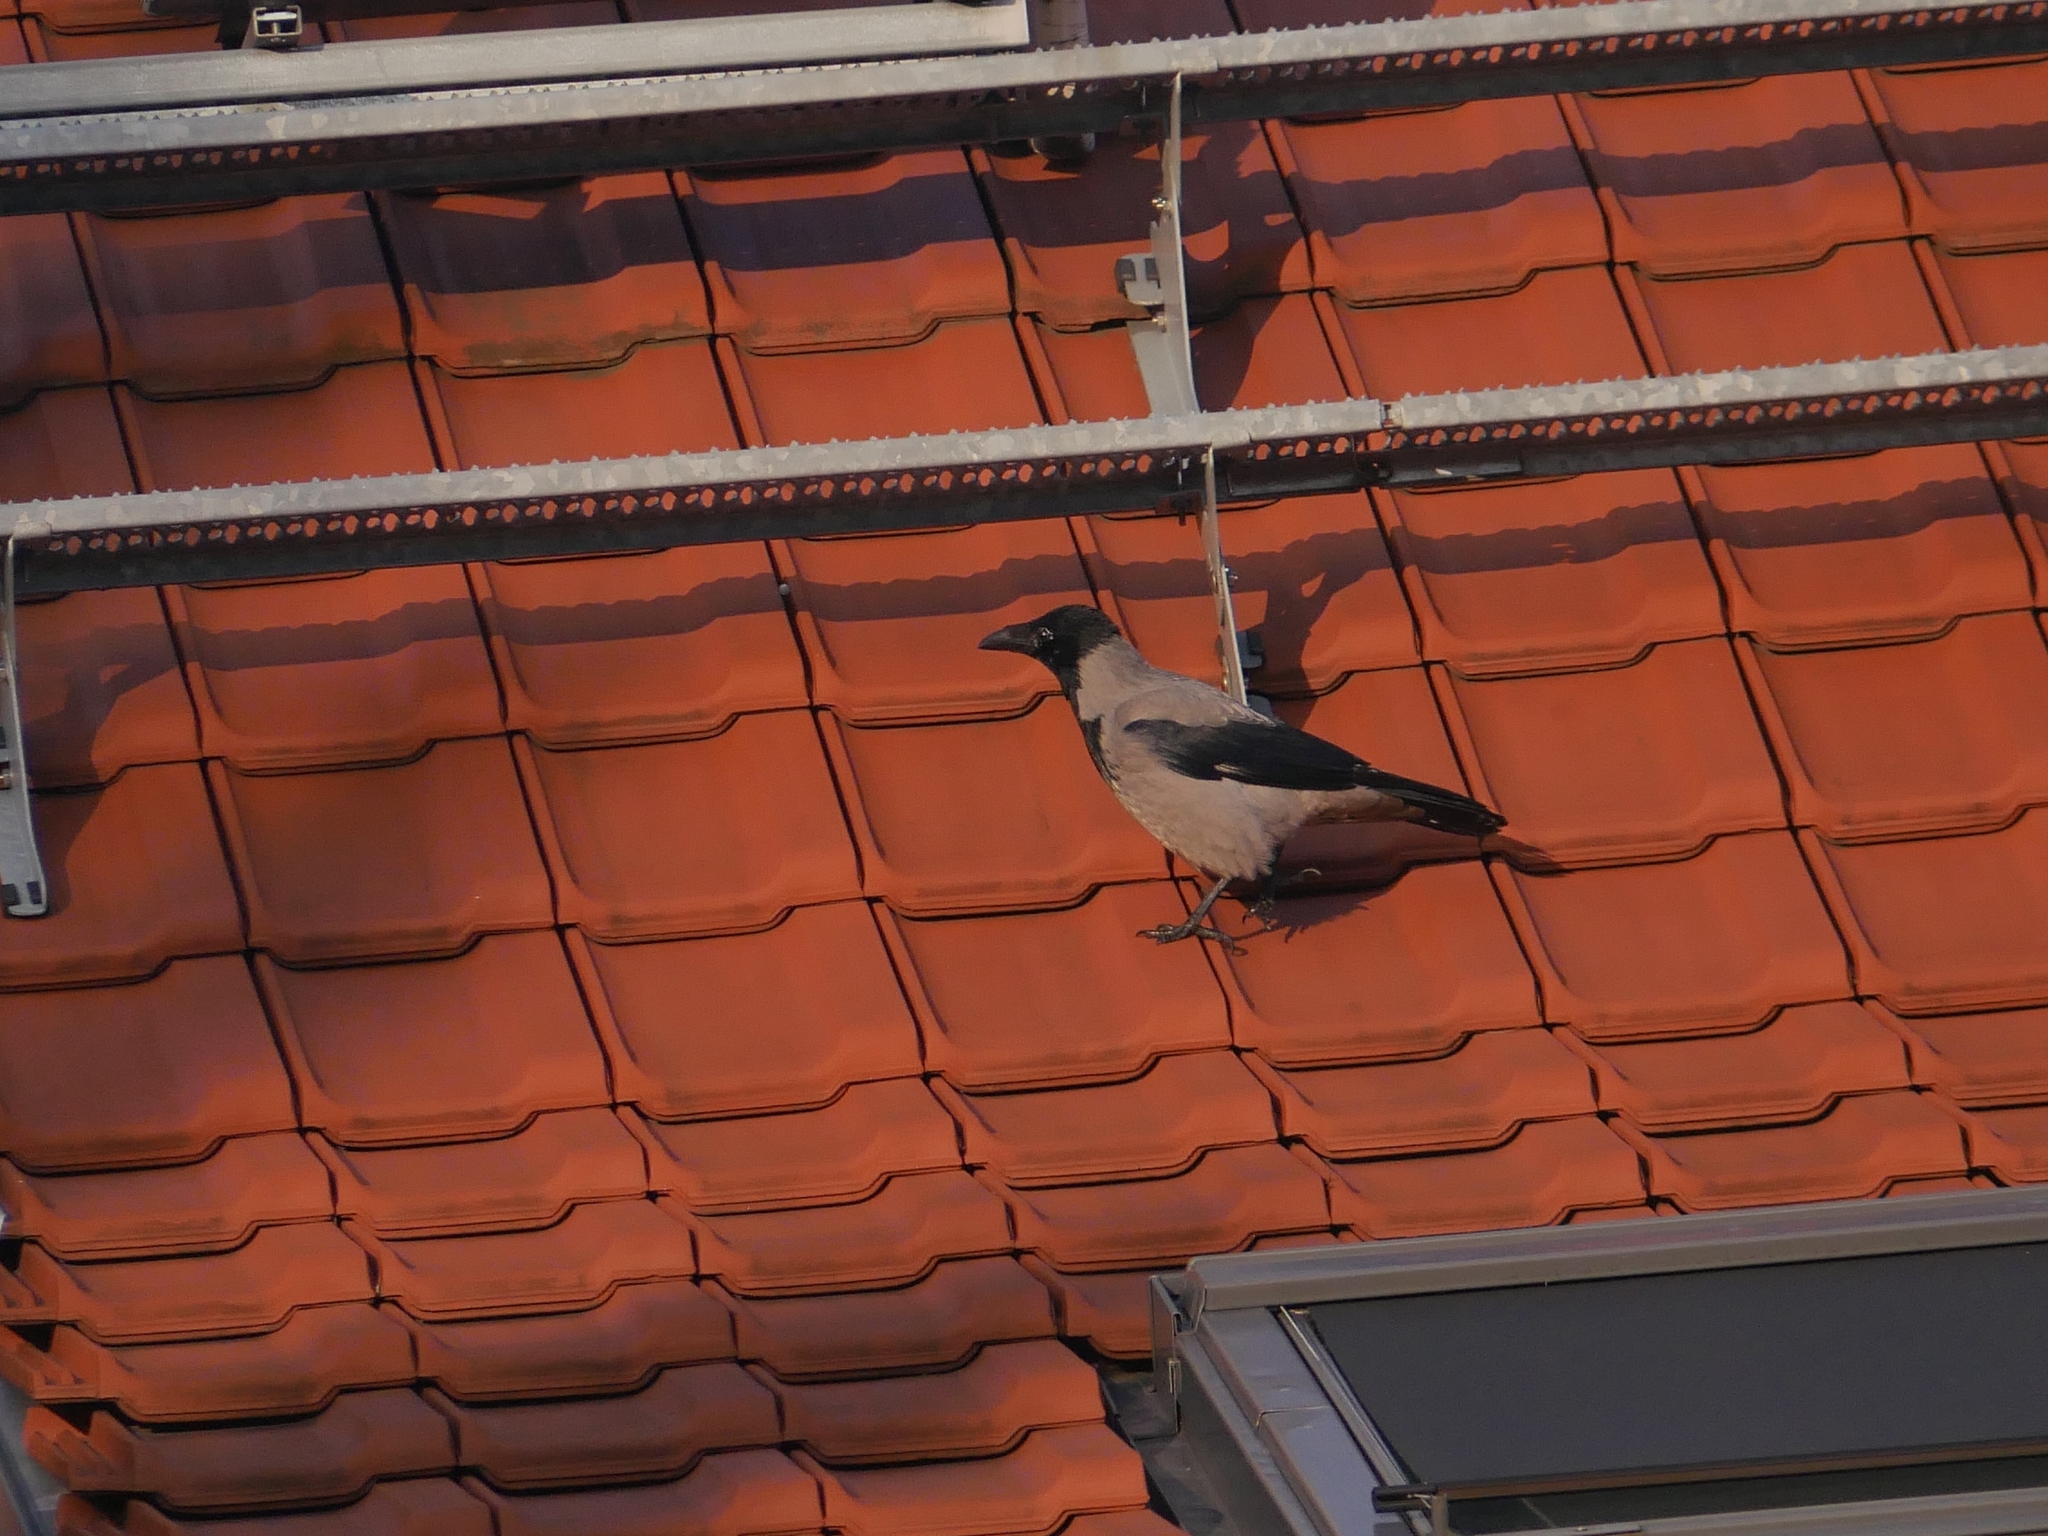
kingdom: Animalia
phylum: Chordata
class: Aves
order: Passeriformes
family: Corvidae
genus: Corvus
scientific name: Corvus cornix
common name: Hooded crow
